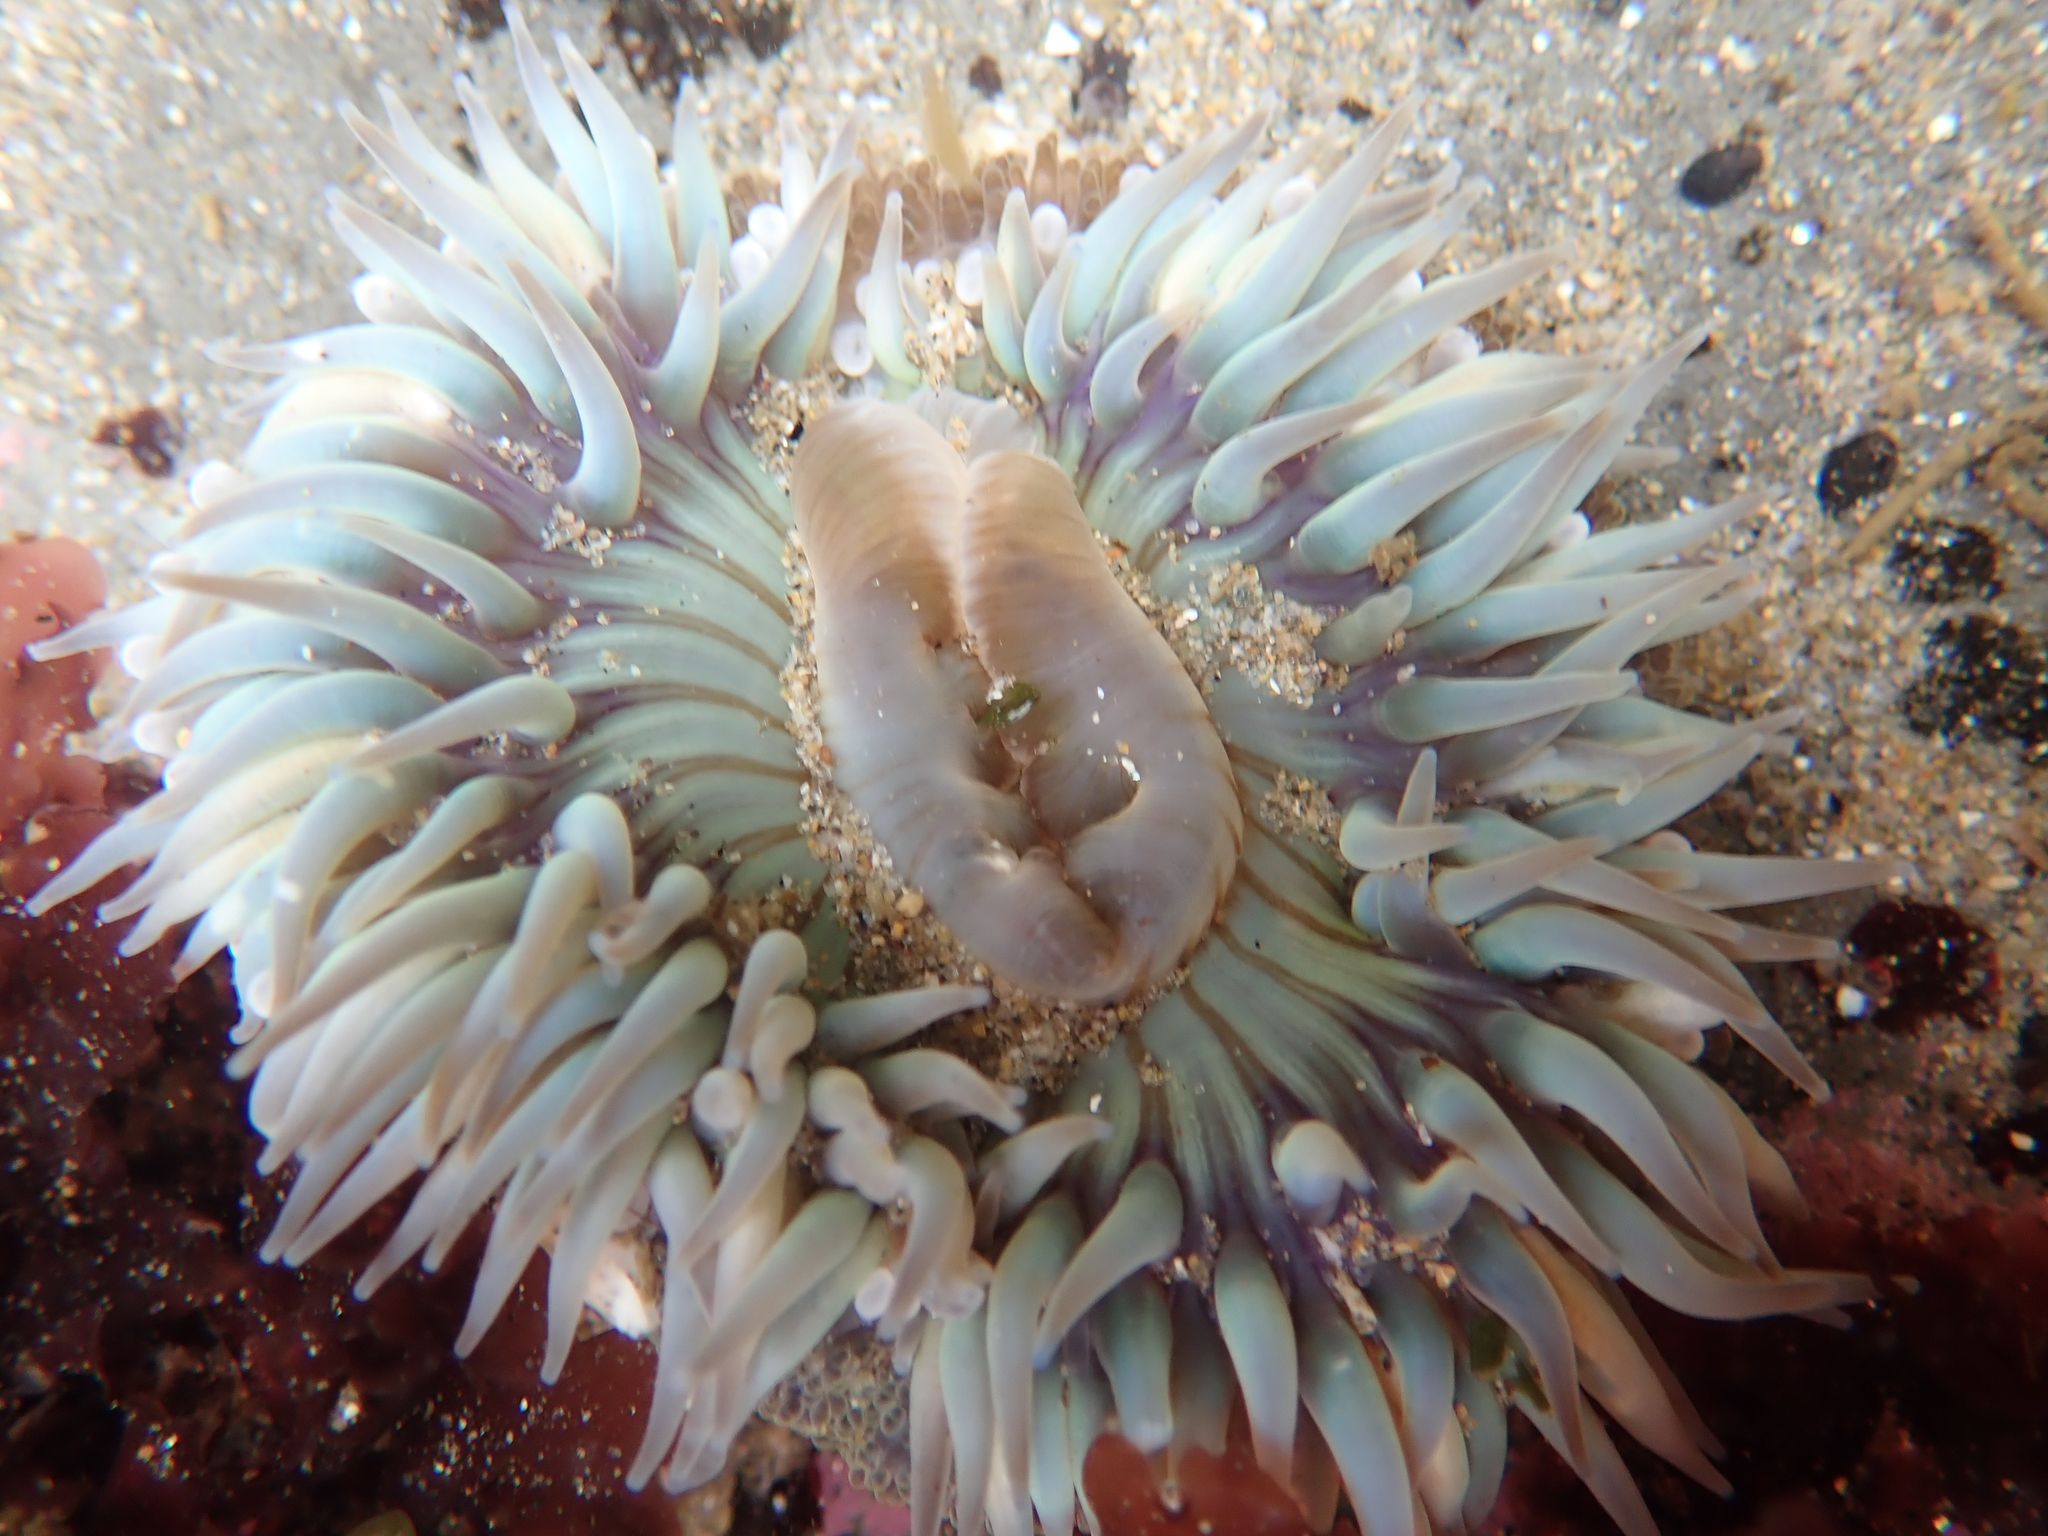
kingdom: Animalia
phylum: Cnidaria
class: Anthozoa
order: Actiniaria
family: Actiniidae
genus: Anthopleura
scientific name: Anthopleura sola
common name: Sun anemone
